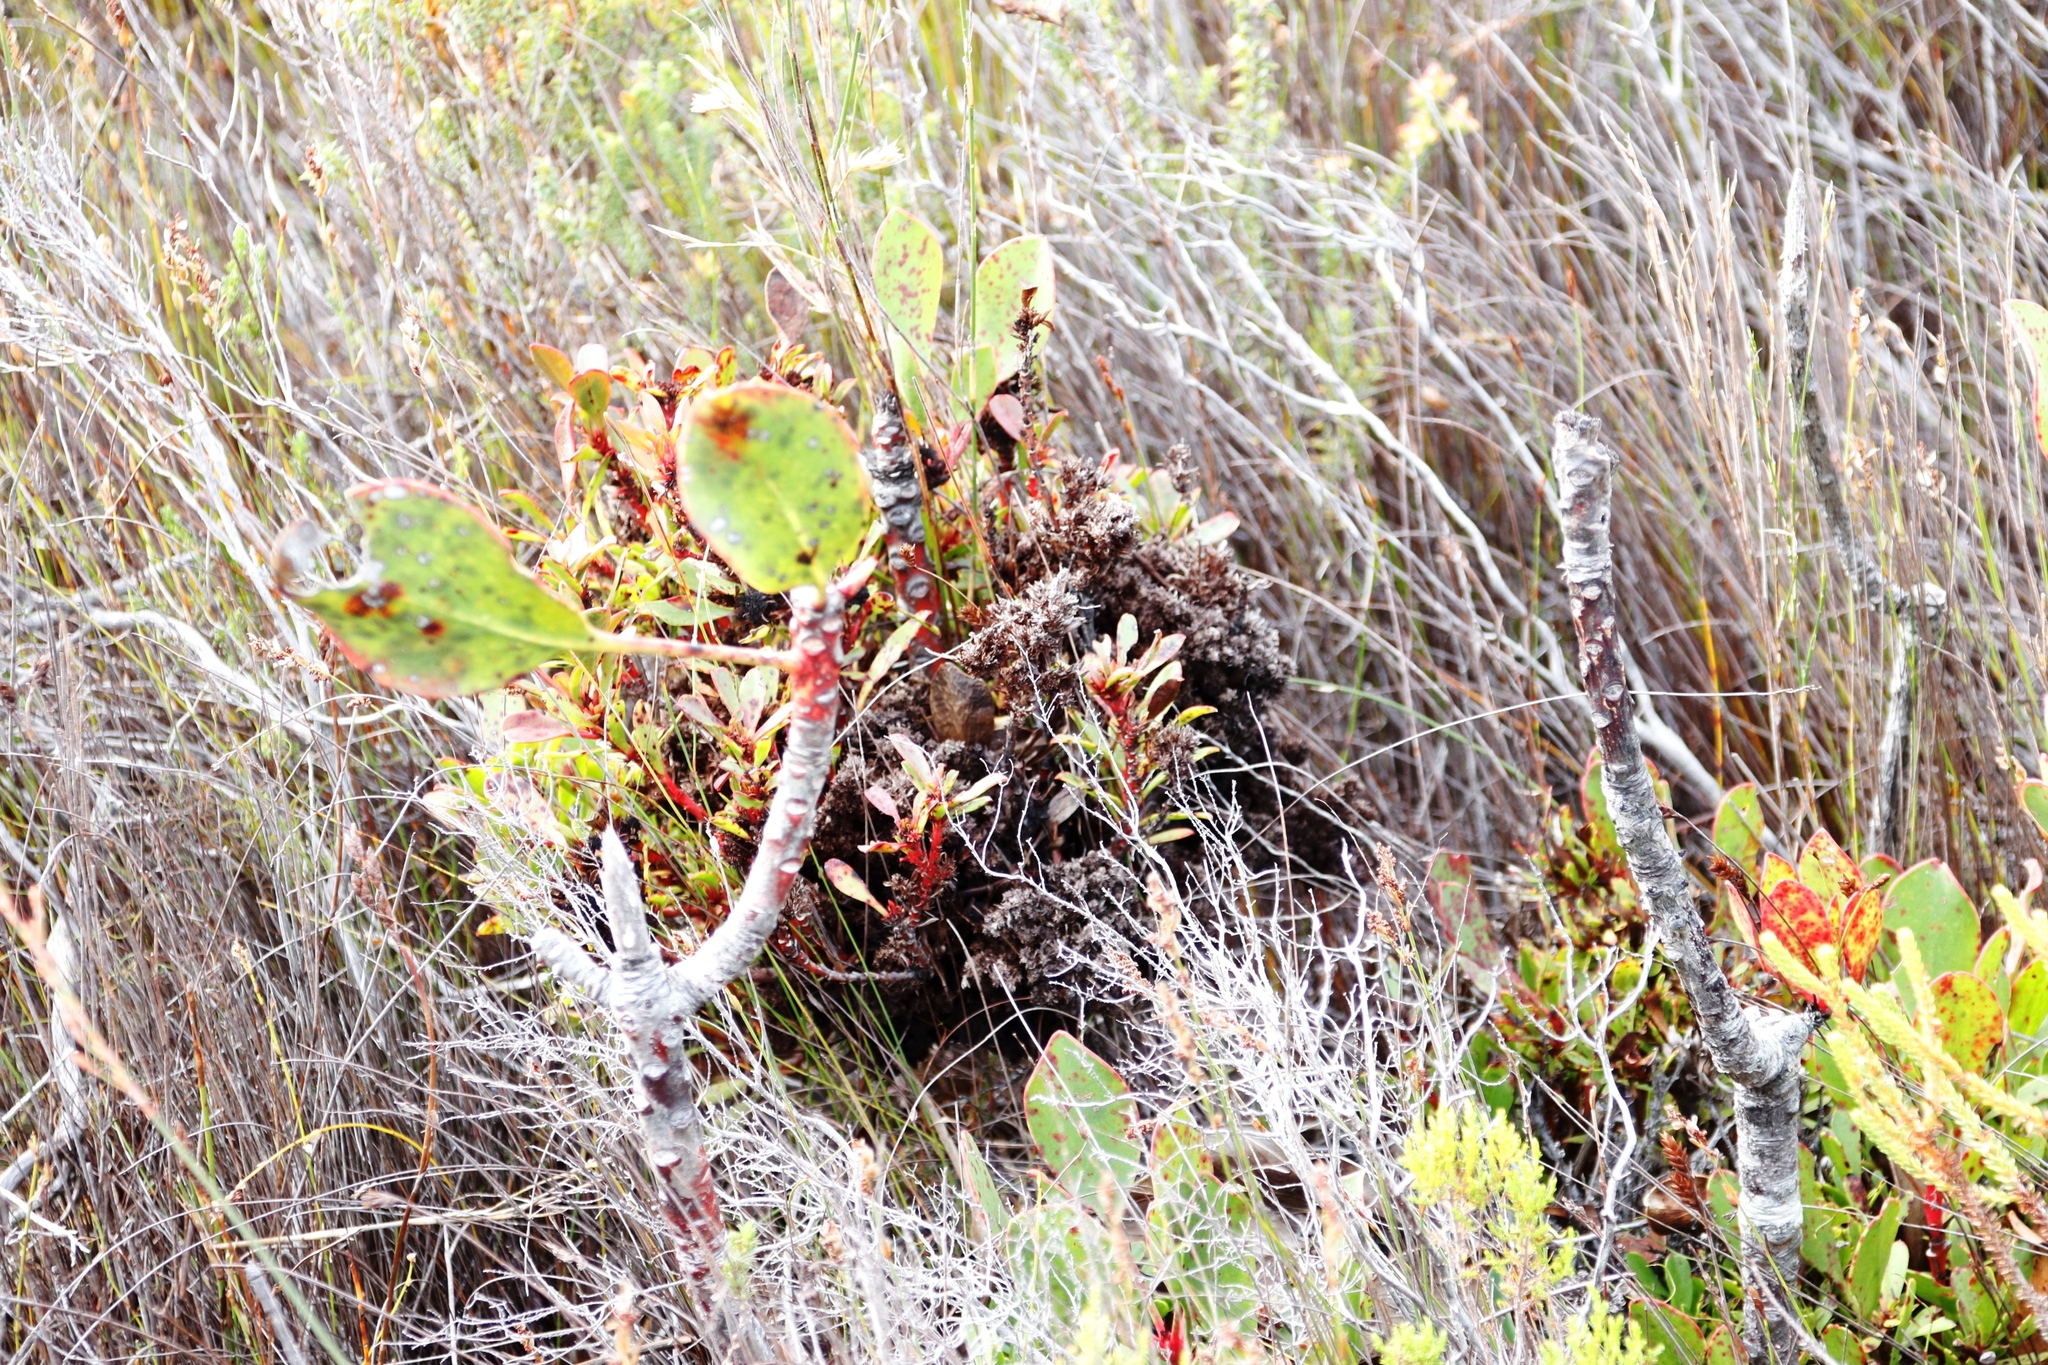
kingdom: Bacteria
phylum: Firmicutes
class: Bacilli
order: Acholeplasmatales
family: Acholeplasmataceae
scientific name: Acholeplasmataceae
